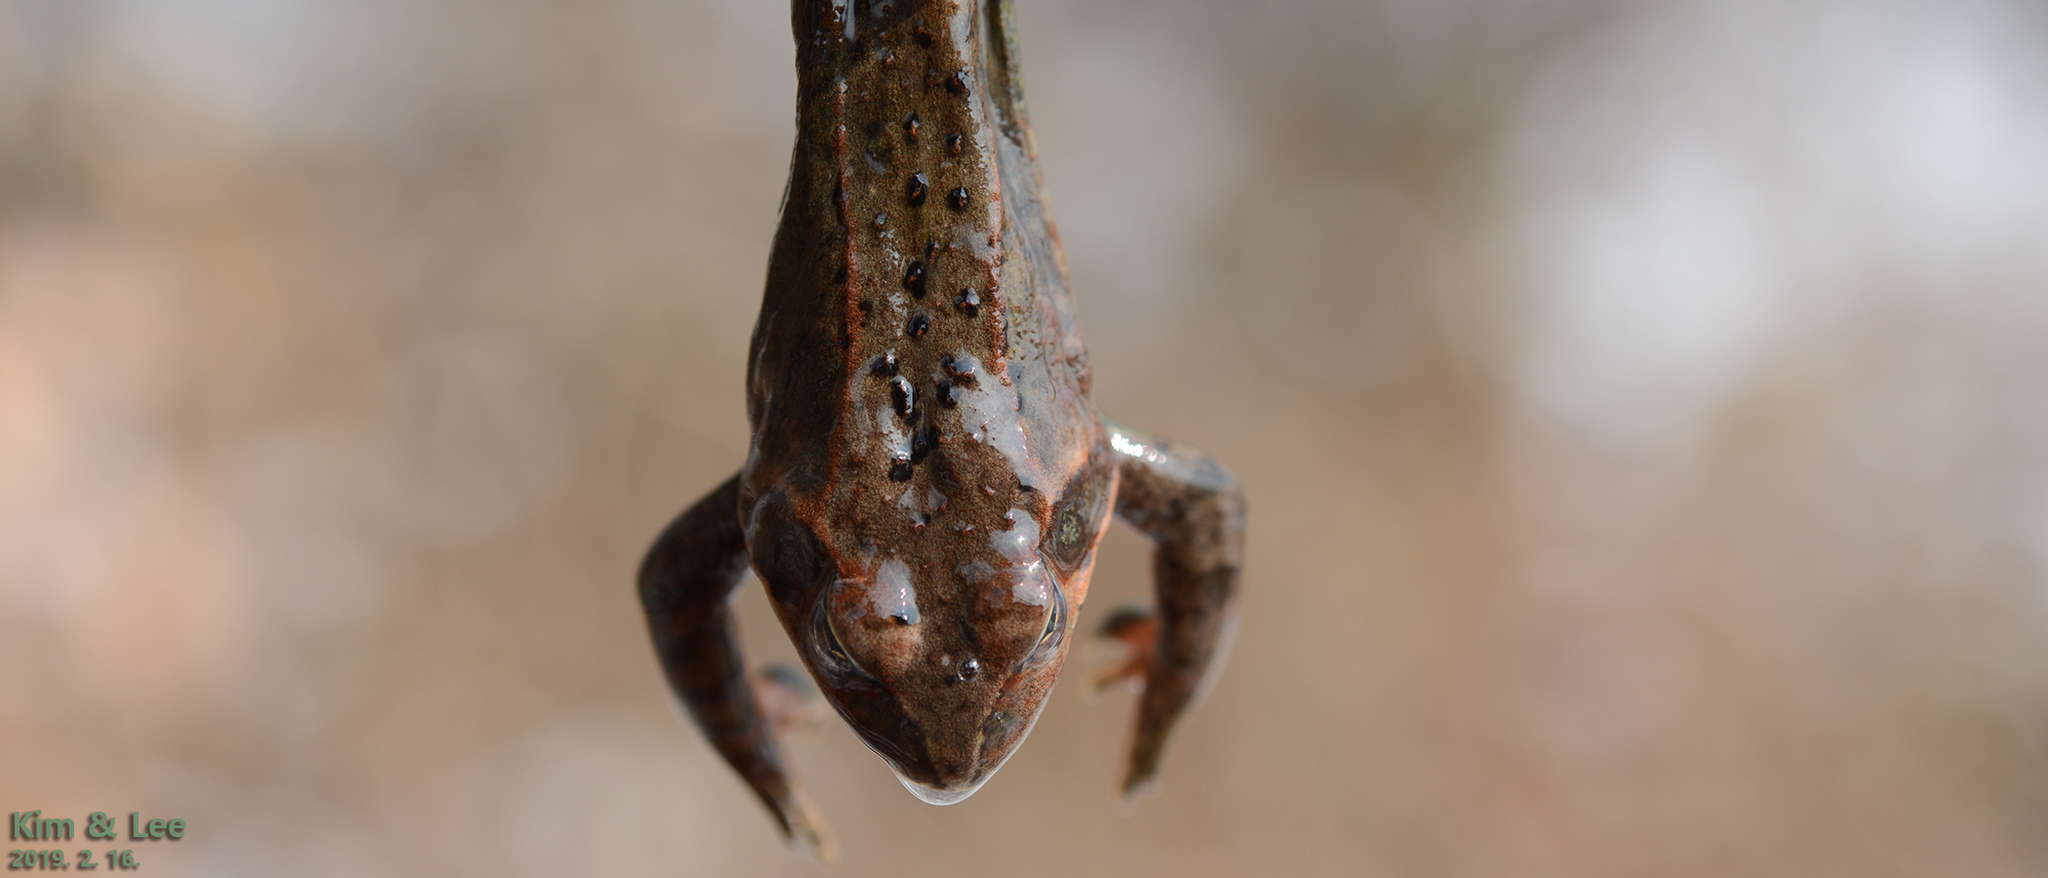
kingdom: Animalia
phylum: Chordata
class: Amphibia
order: Anura
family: Ranidae
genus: Rana
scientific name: Rana dybowskii
